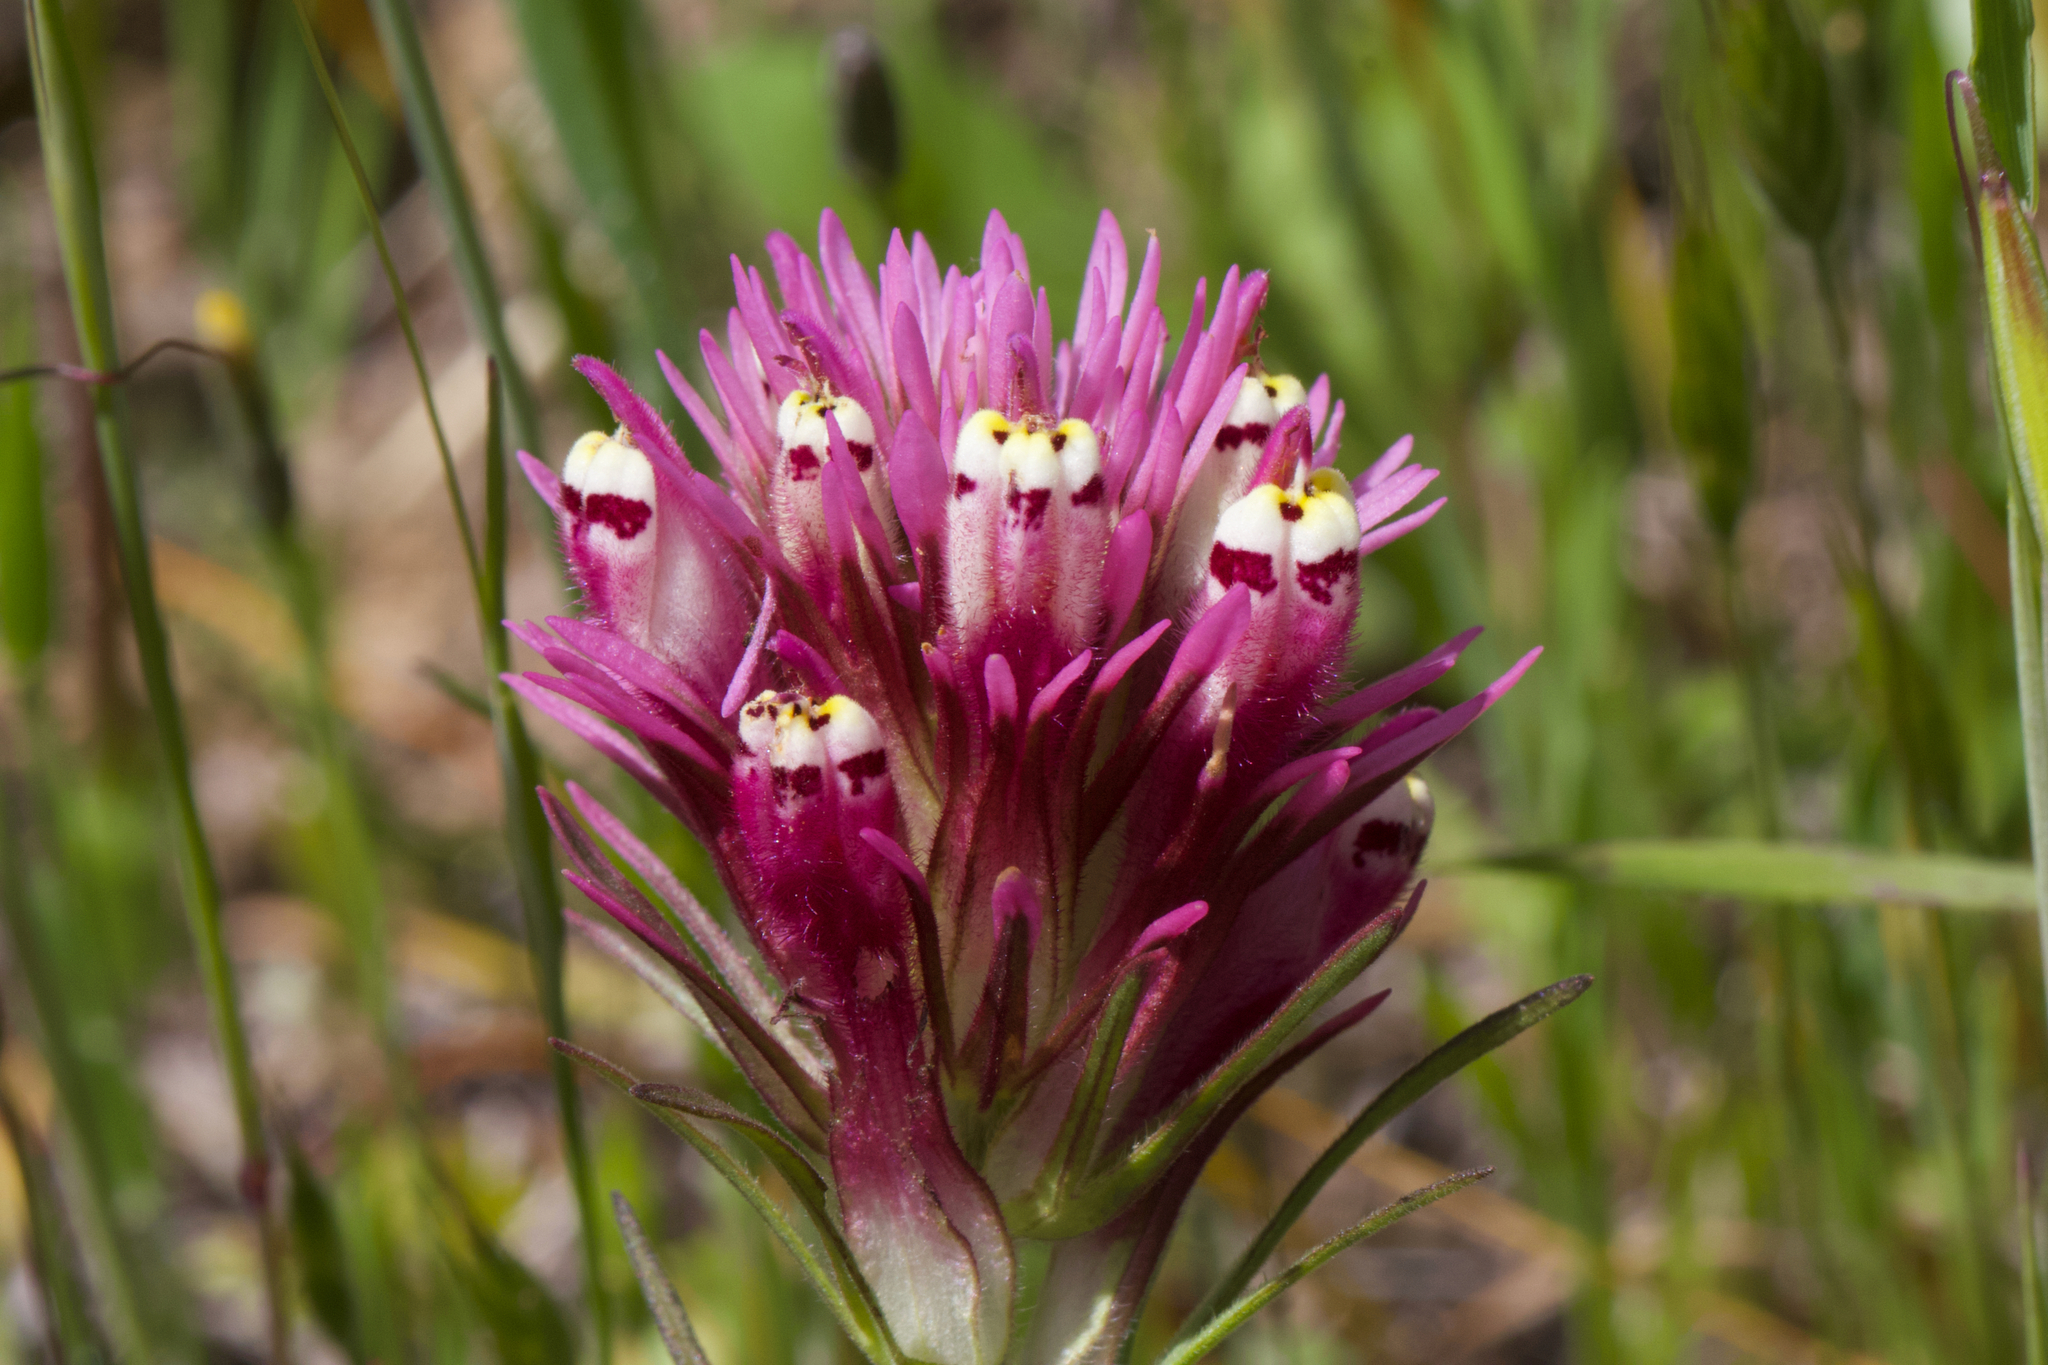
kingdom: Plantae
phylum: Tracheophyta
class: Magnoliopsida
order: Lamiales
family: Orobanchaceae
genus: Castilleja
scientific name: Castilleja densiflora
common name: Dense-flower indian paintbrush
